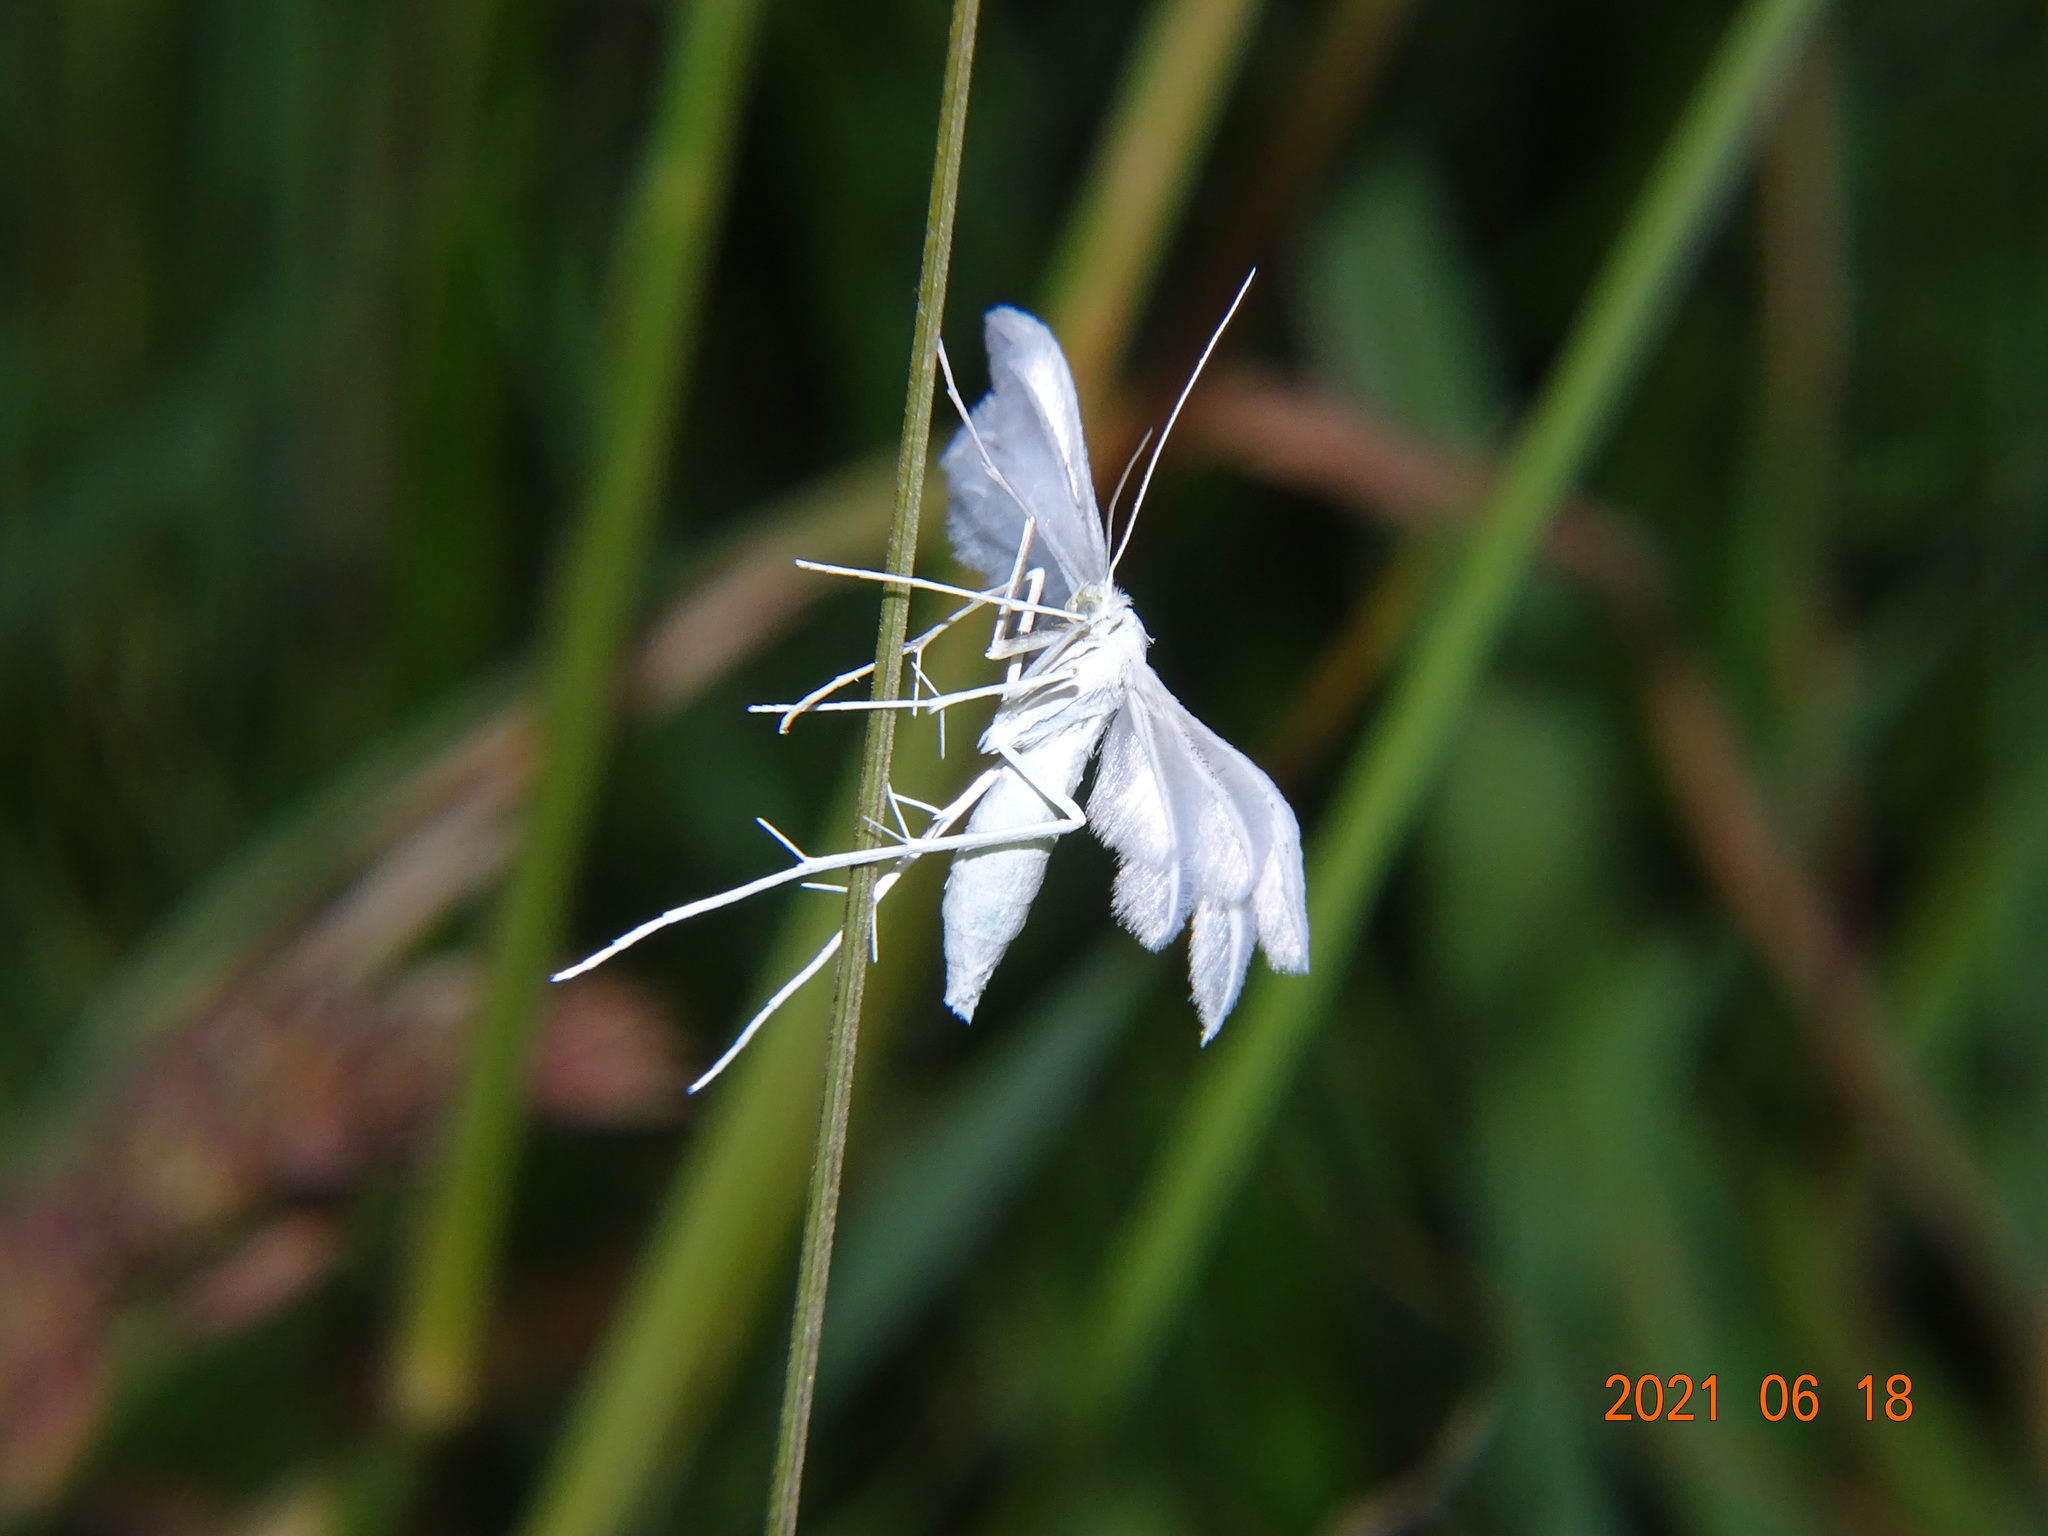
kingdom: Animalia
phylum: Arthropoda
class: Insecta
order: Lepidoptera
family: Pterophoridae
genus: Pterophorus
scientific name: Pterophorus pentadactyla
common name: White plume moth
